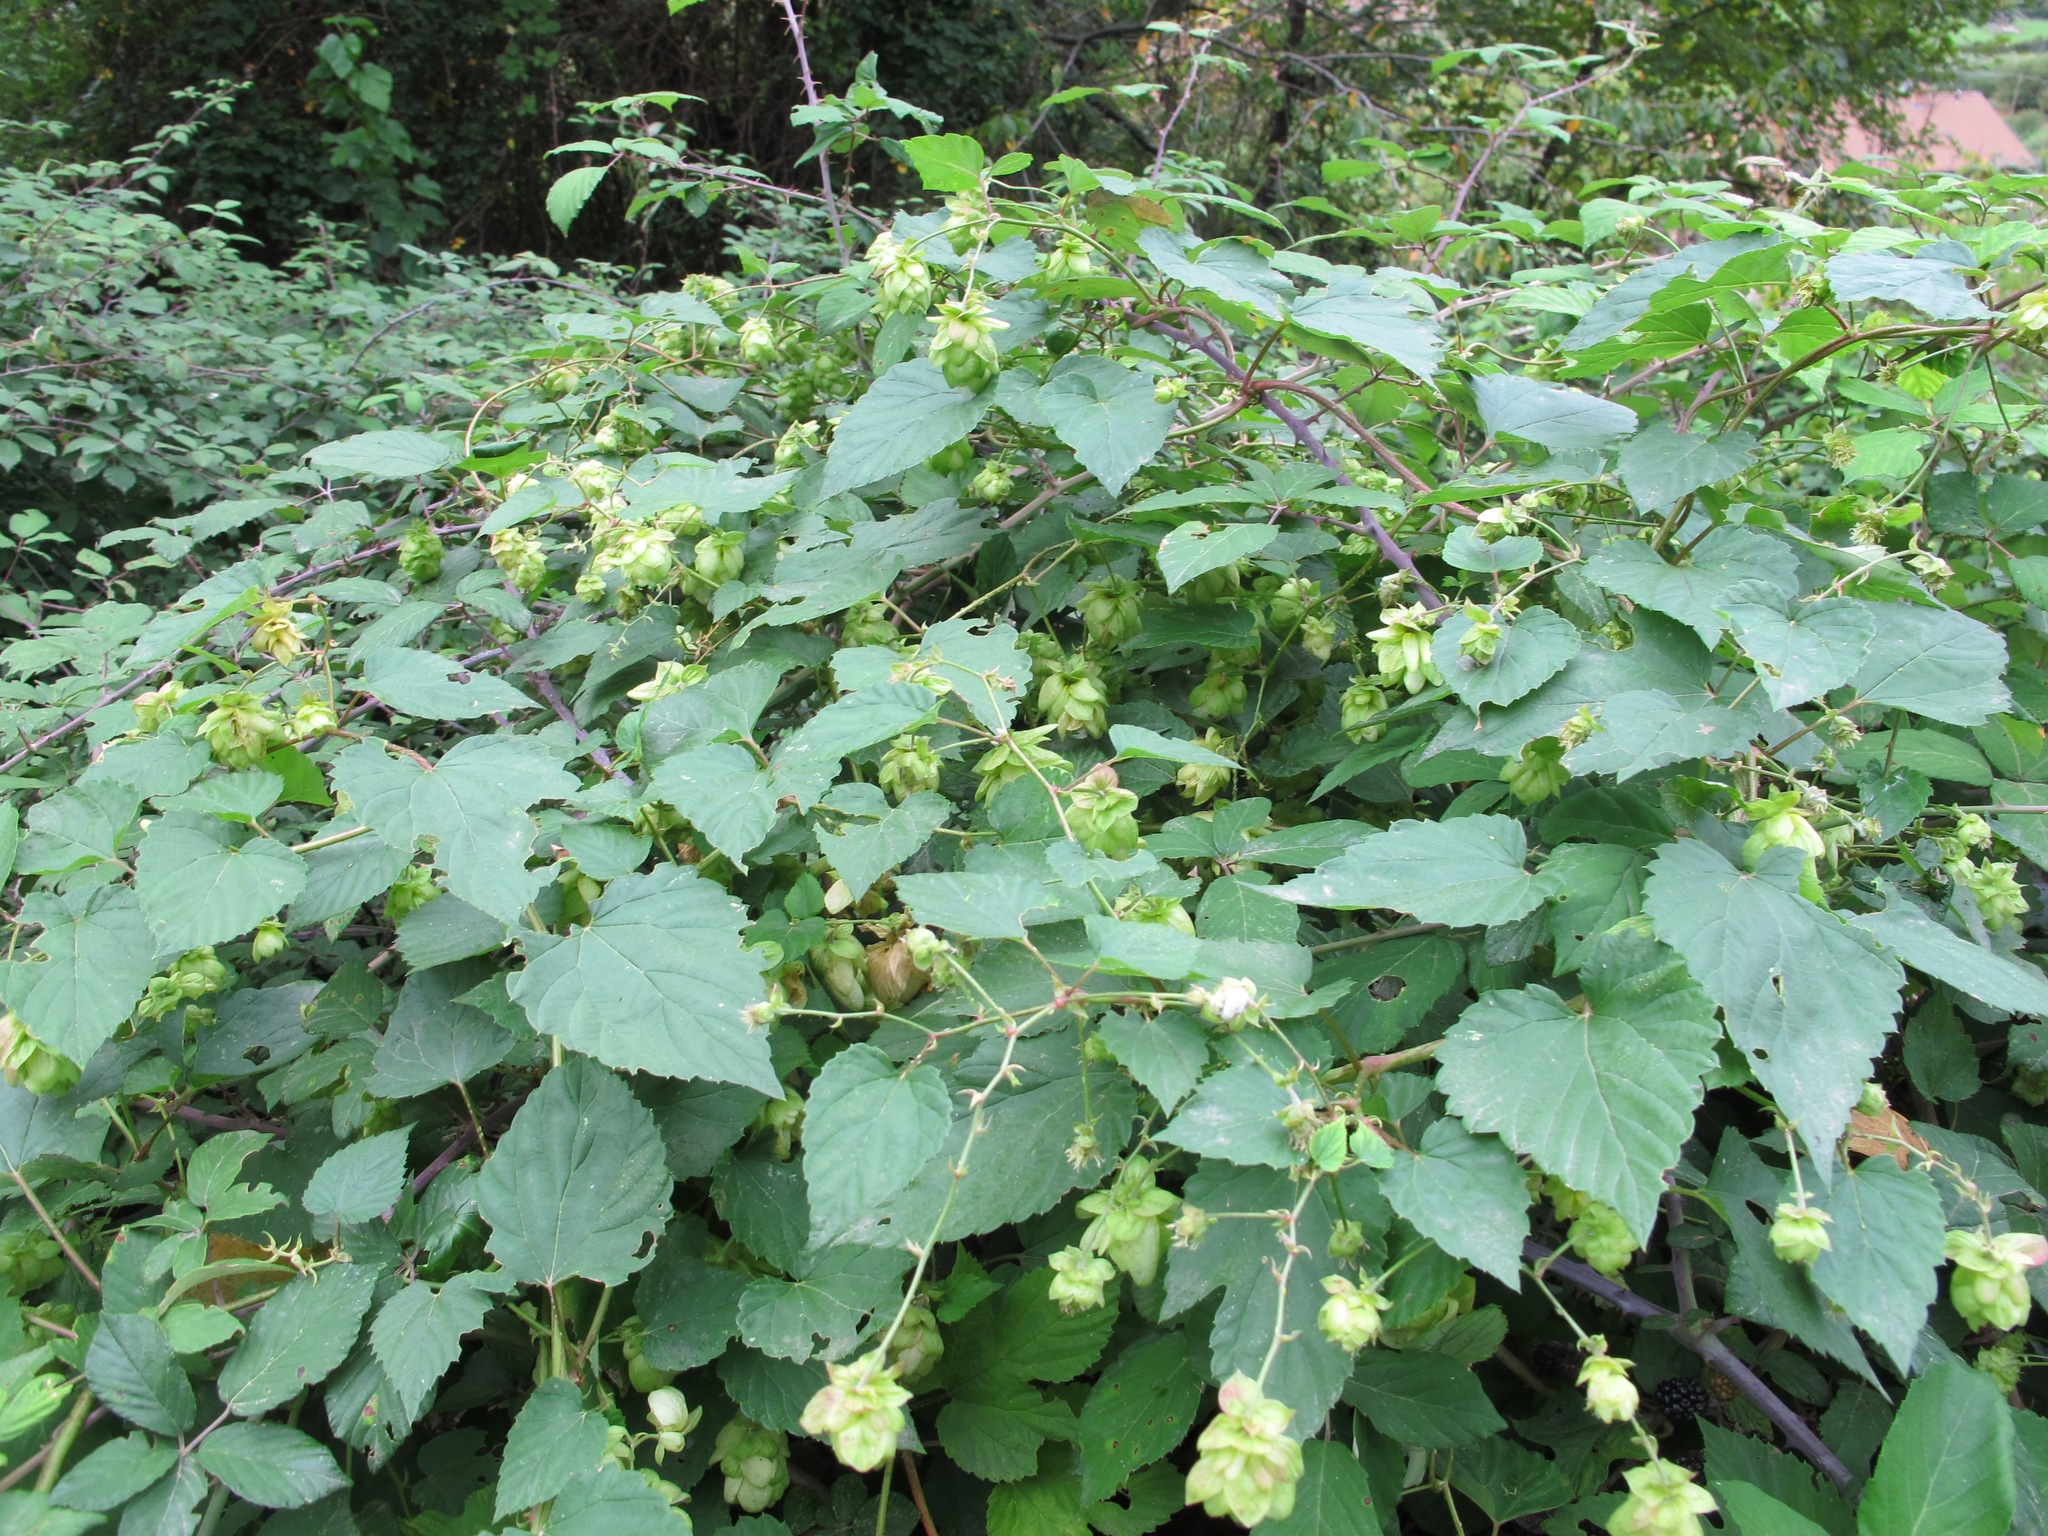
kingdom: Plantae
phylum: Tracheophyta
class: Magnoliopsida
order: Rosales
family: Cannabaceae
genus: Humulus
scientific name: Humulus lupulus
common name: Hop
